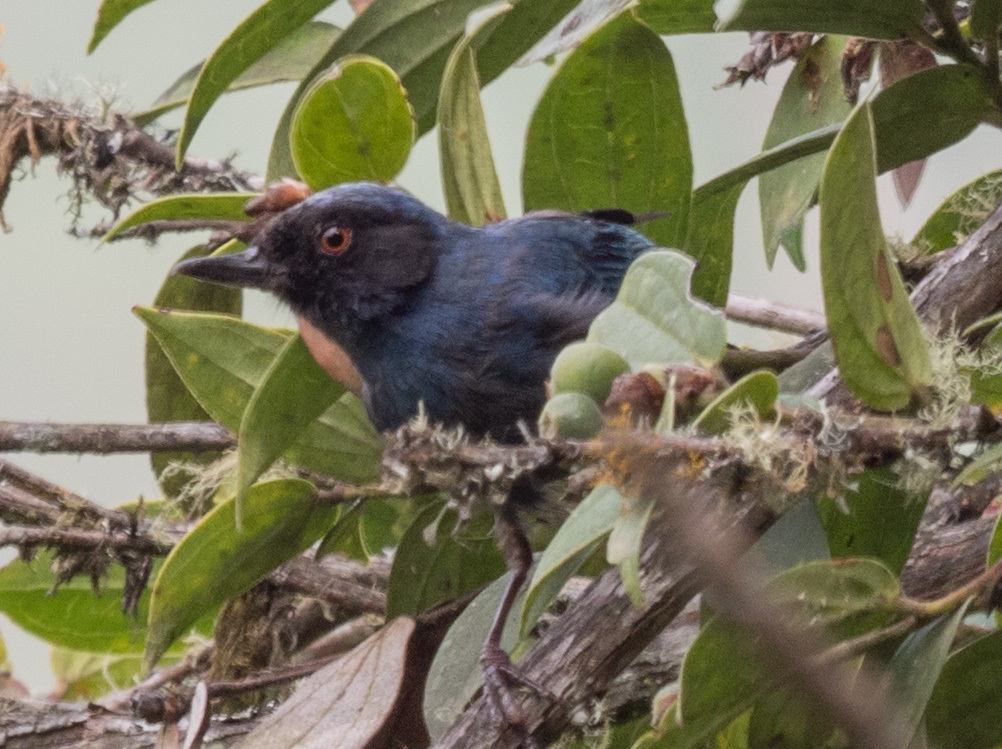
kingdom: Animalia
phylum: Chordata
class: Aves
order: Passeriformes
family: Thraupidae
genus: Diglossa
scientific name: Diglossa cyanea
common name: Masked flowerpiercer
